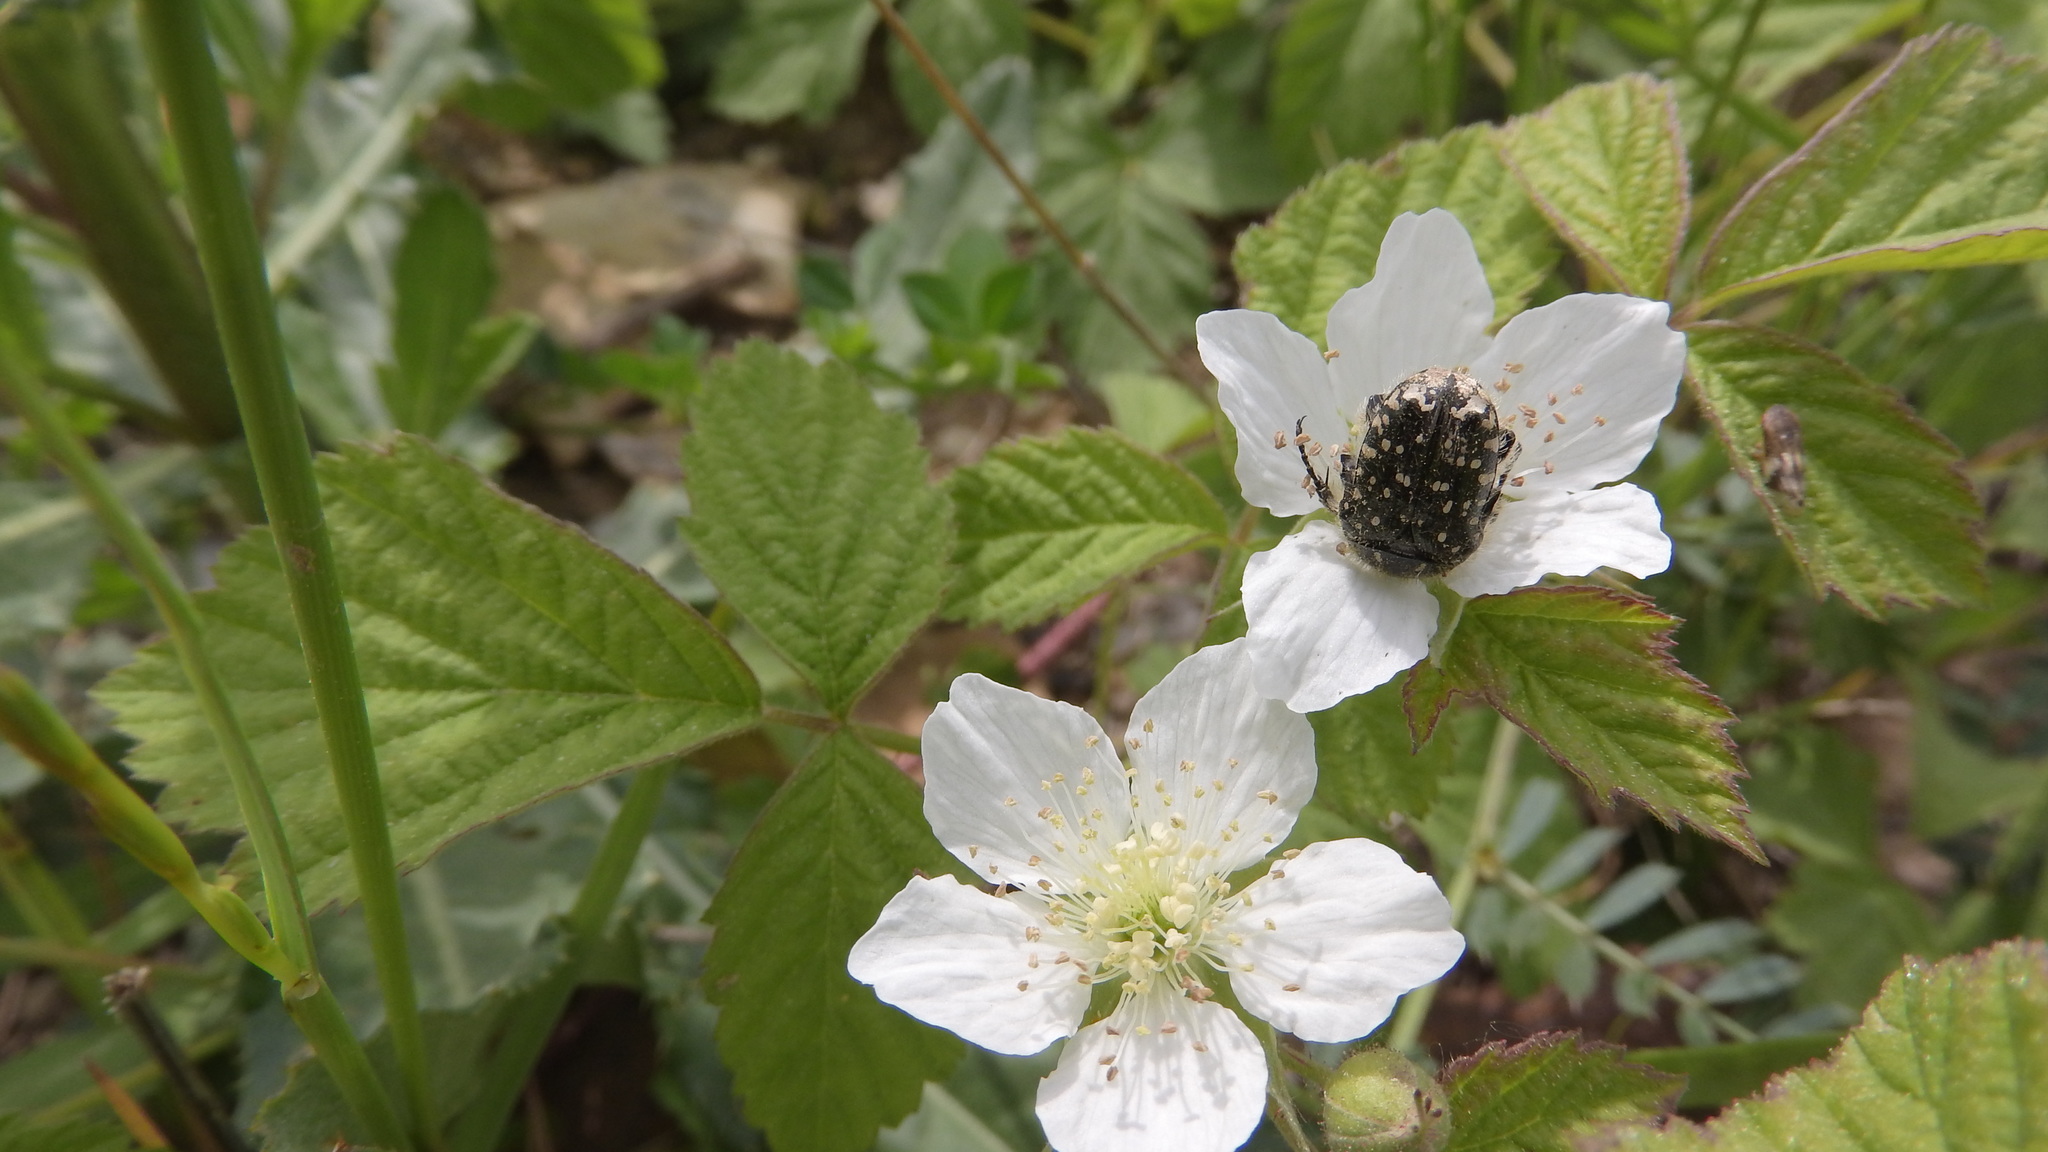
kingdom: Animalia
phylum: Arthropoda
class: Insecta
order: Coleoptera
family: Scarabaeidae
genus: Oxythyrea
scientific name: Oxythyrea funesta
